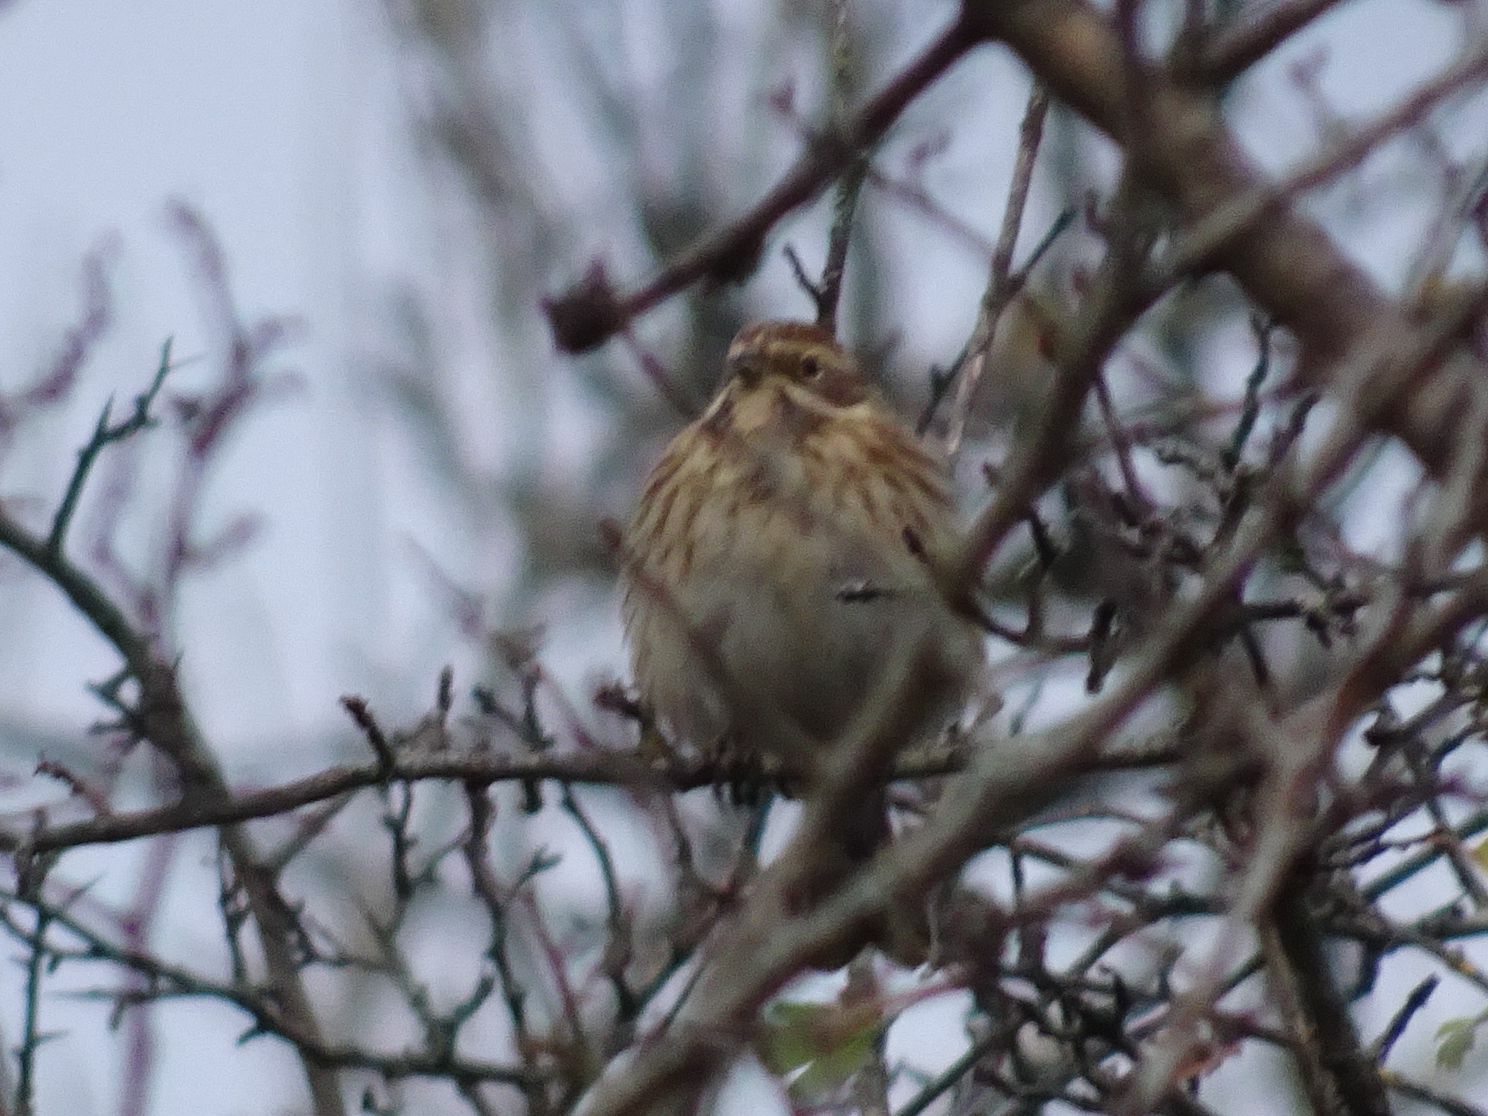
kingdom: Animalia
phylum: Chordata
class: Aves
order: Passeriformes
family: Emberizidae
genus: Emberiza
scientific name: Emberiza schoeniclus
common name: Reed bunting
